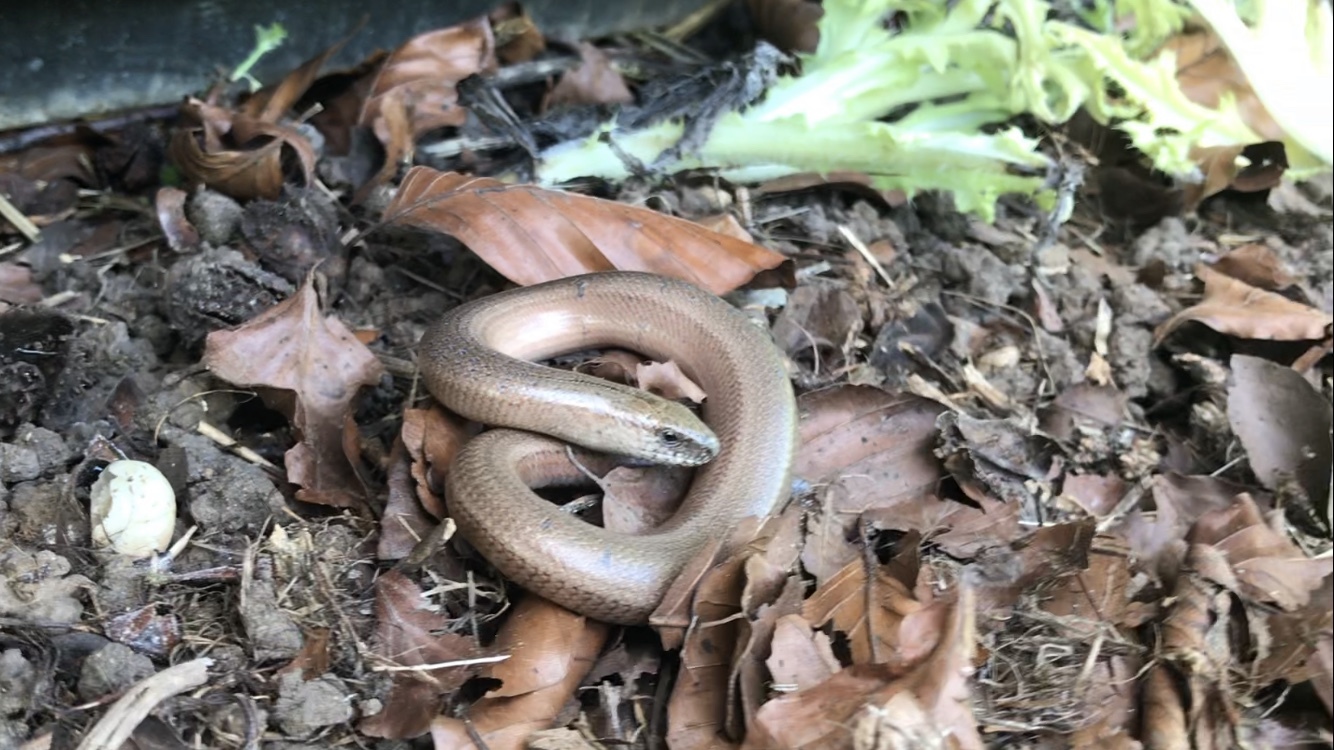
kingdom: Animalia
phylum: Chordata
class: Squamata
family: Anguidae
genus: Anguis
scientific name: Anguis fragilis
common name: Slow worm
